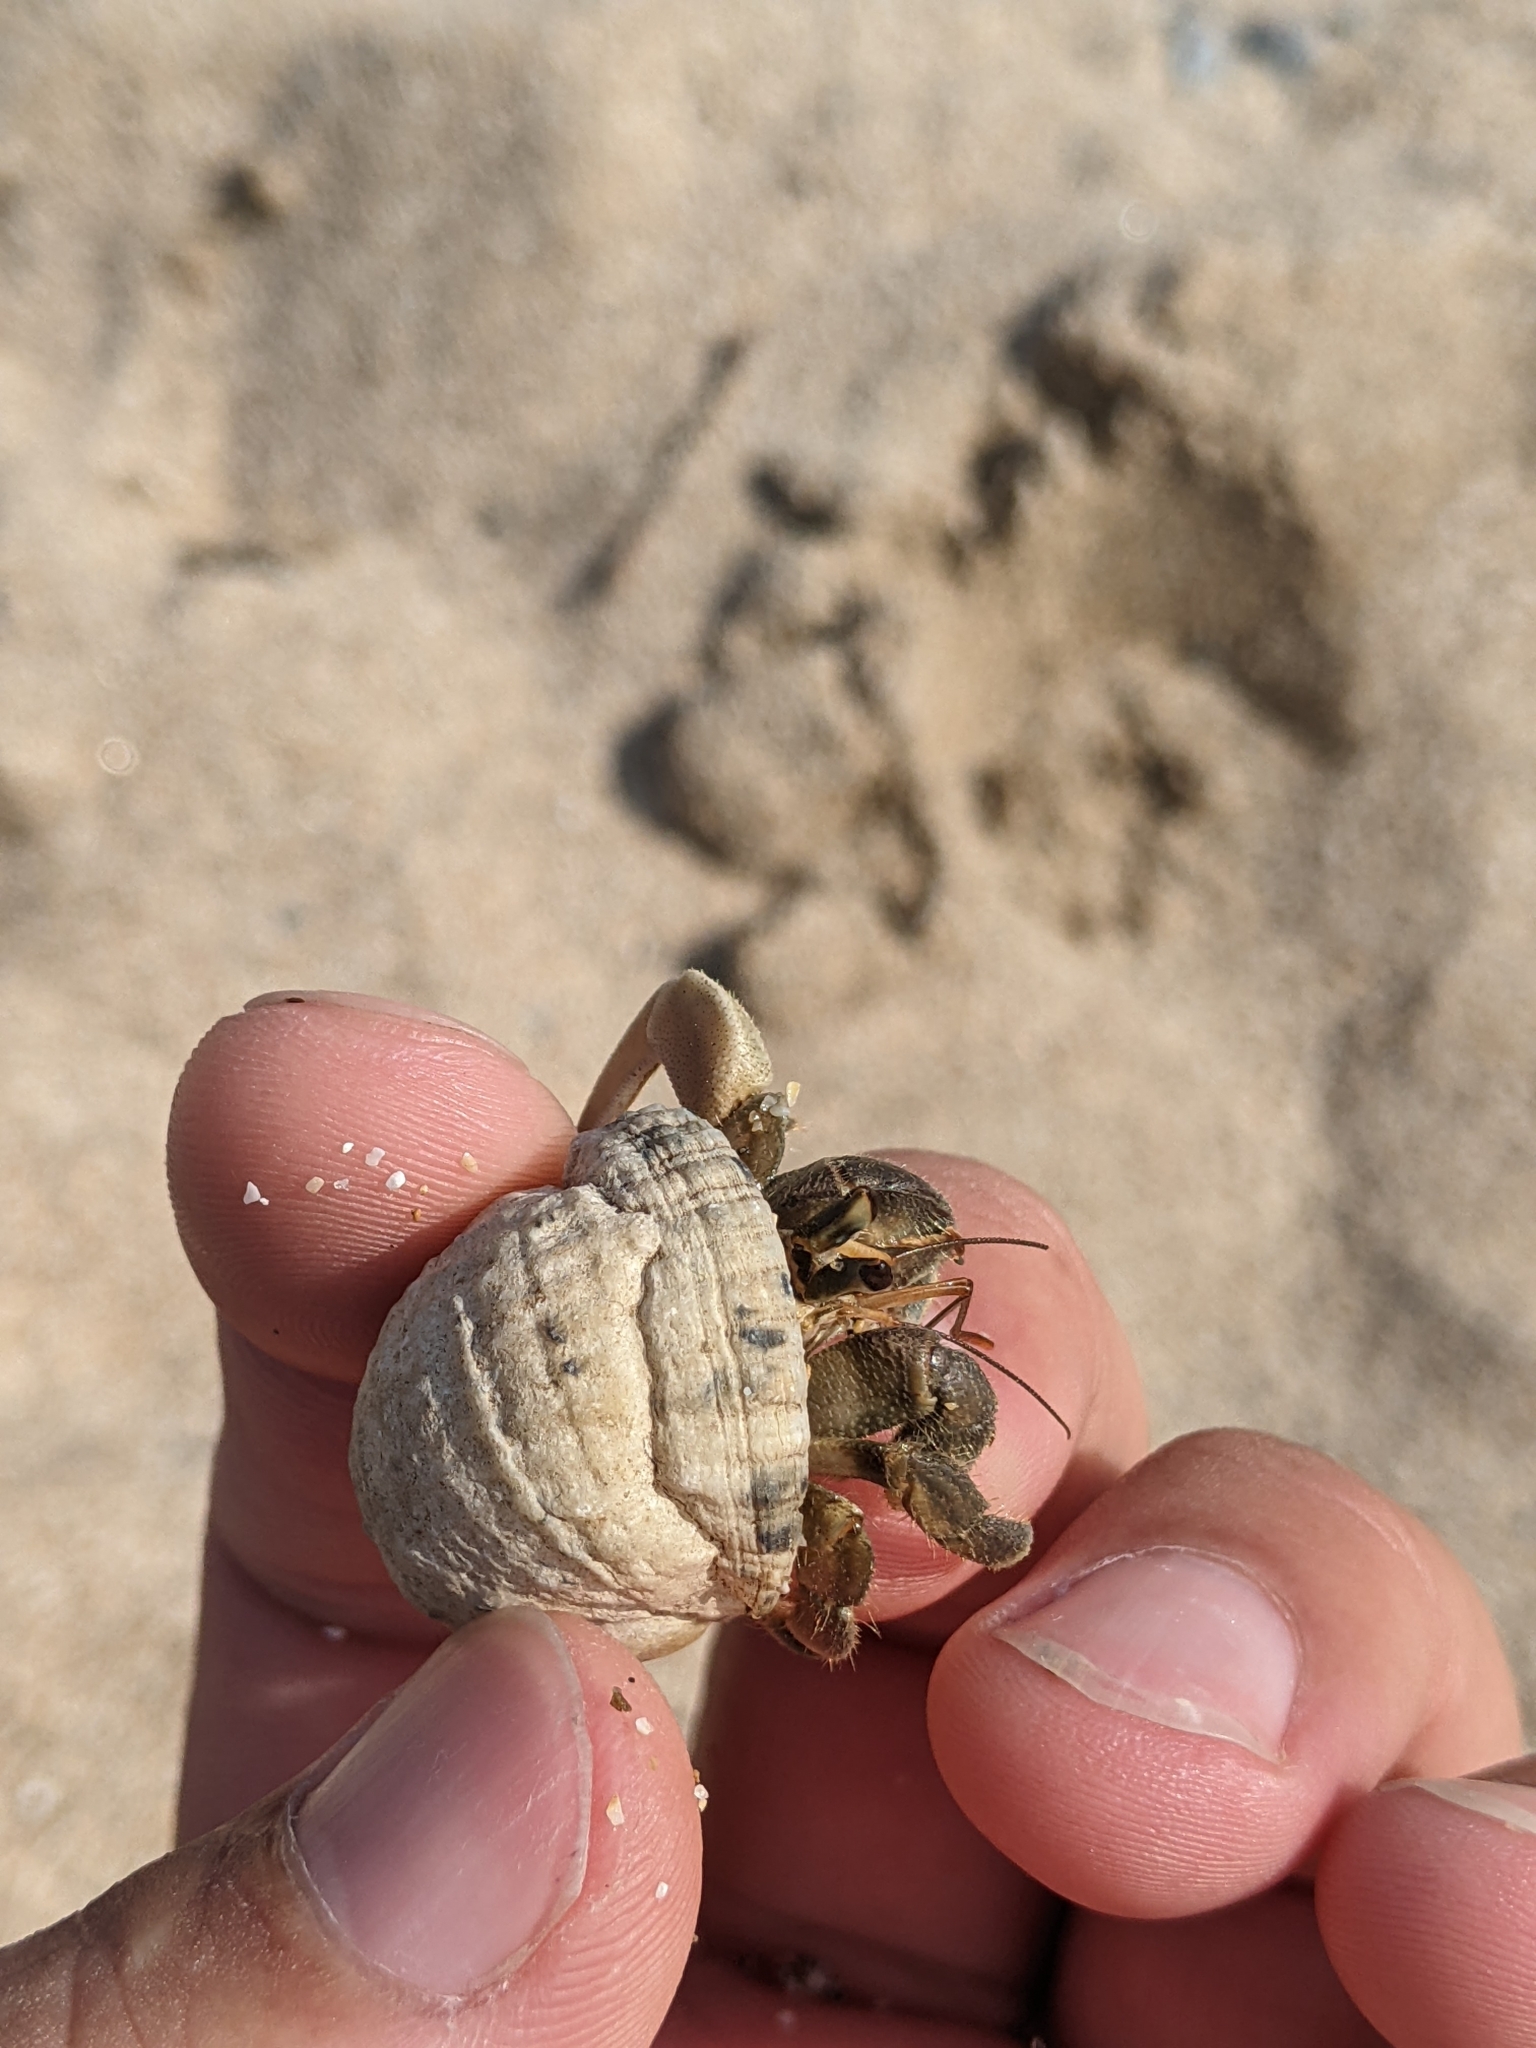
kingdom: Animalia
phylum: Arthropoda
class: Malacostraca
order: Decapoda
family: Coenobitidae
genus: Coenobita
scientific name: Coenobita rugosus
